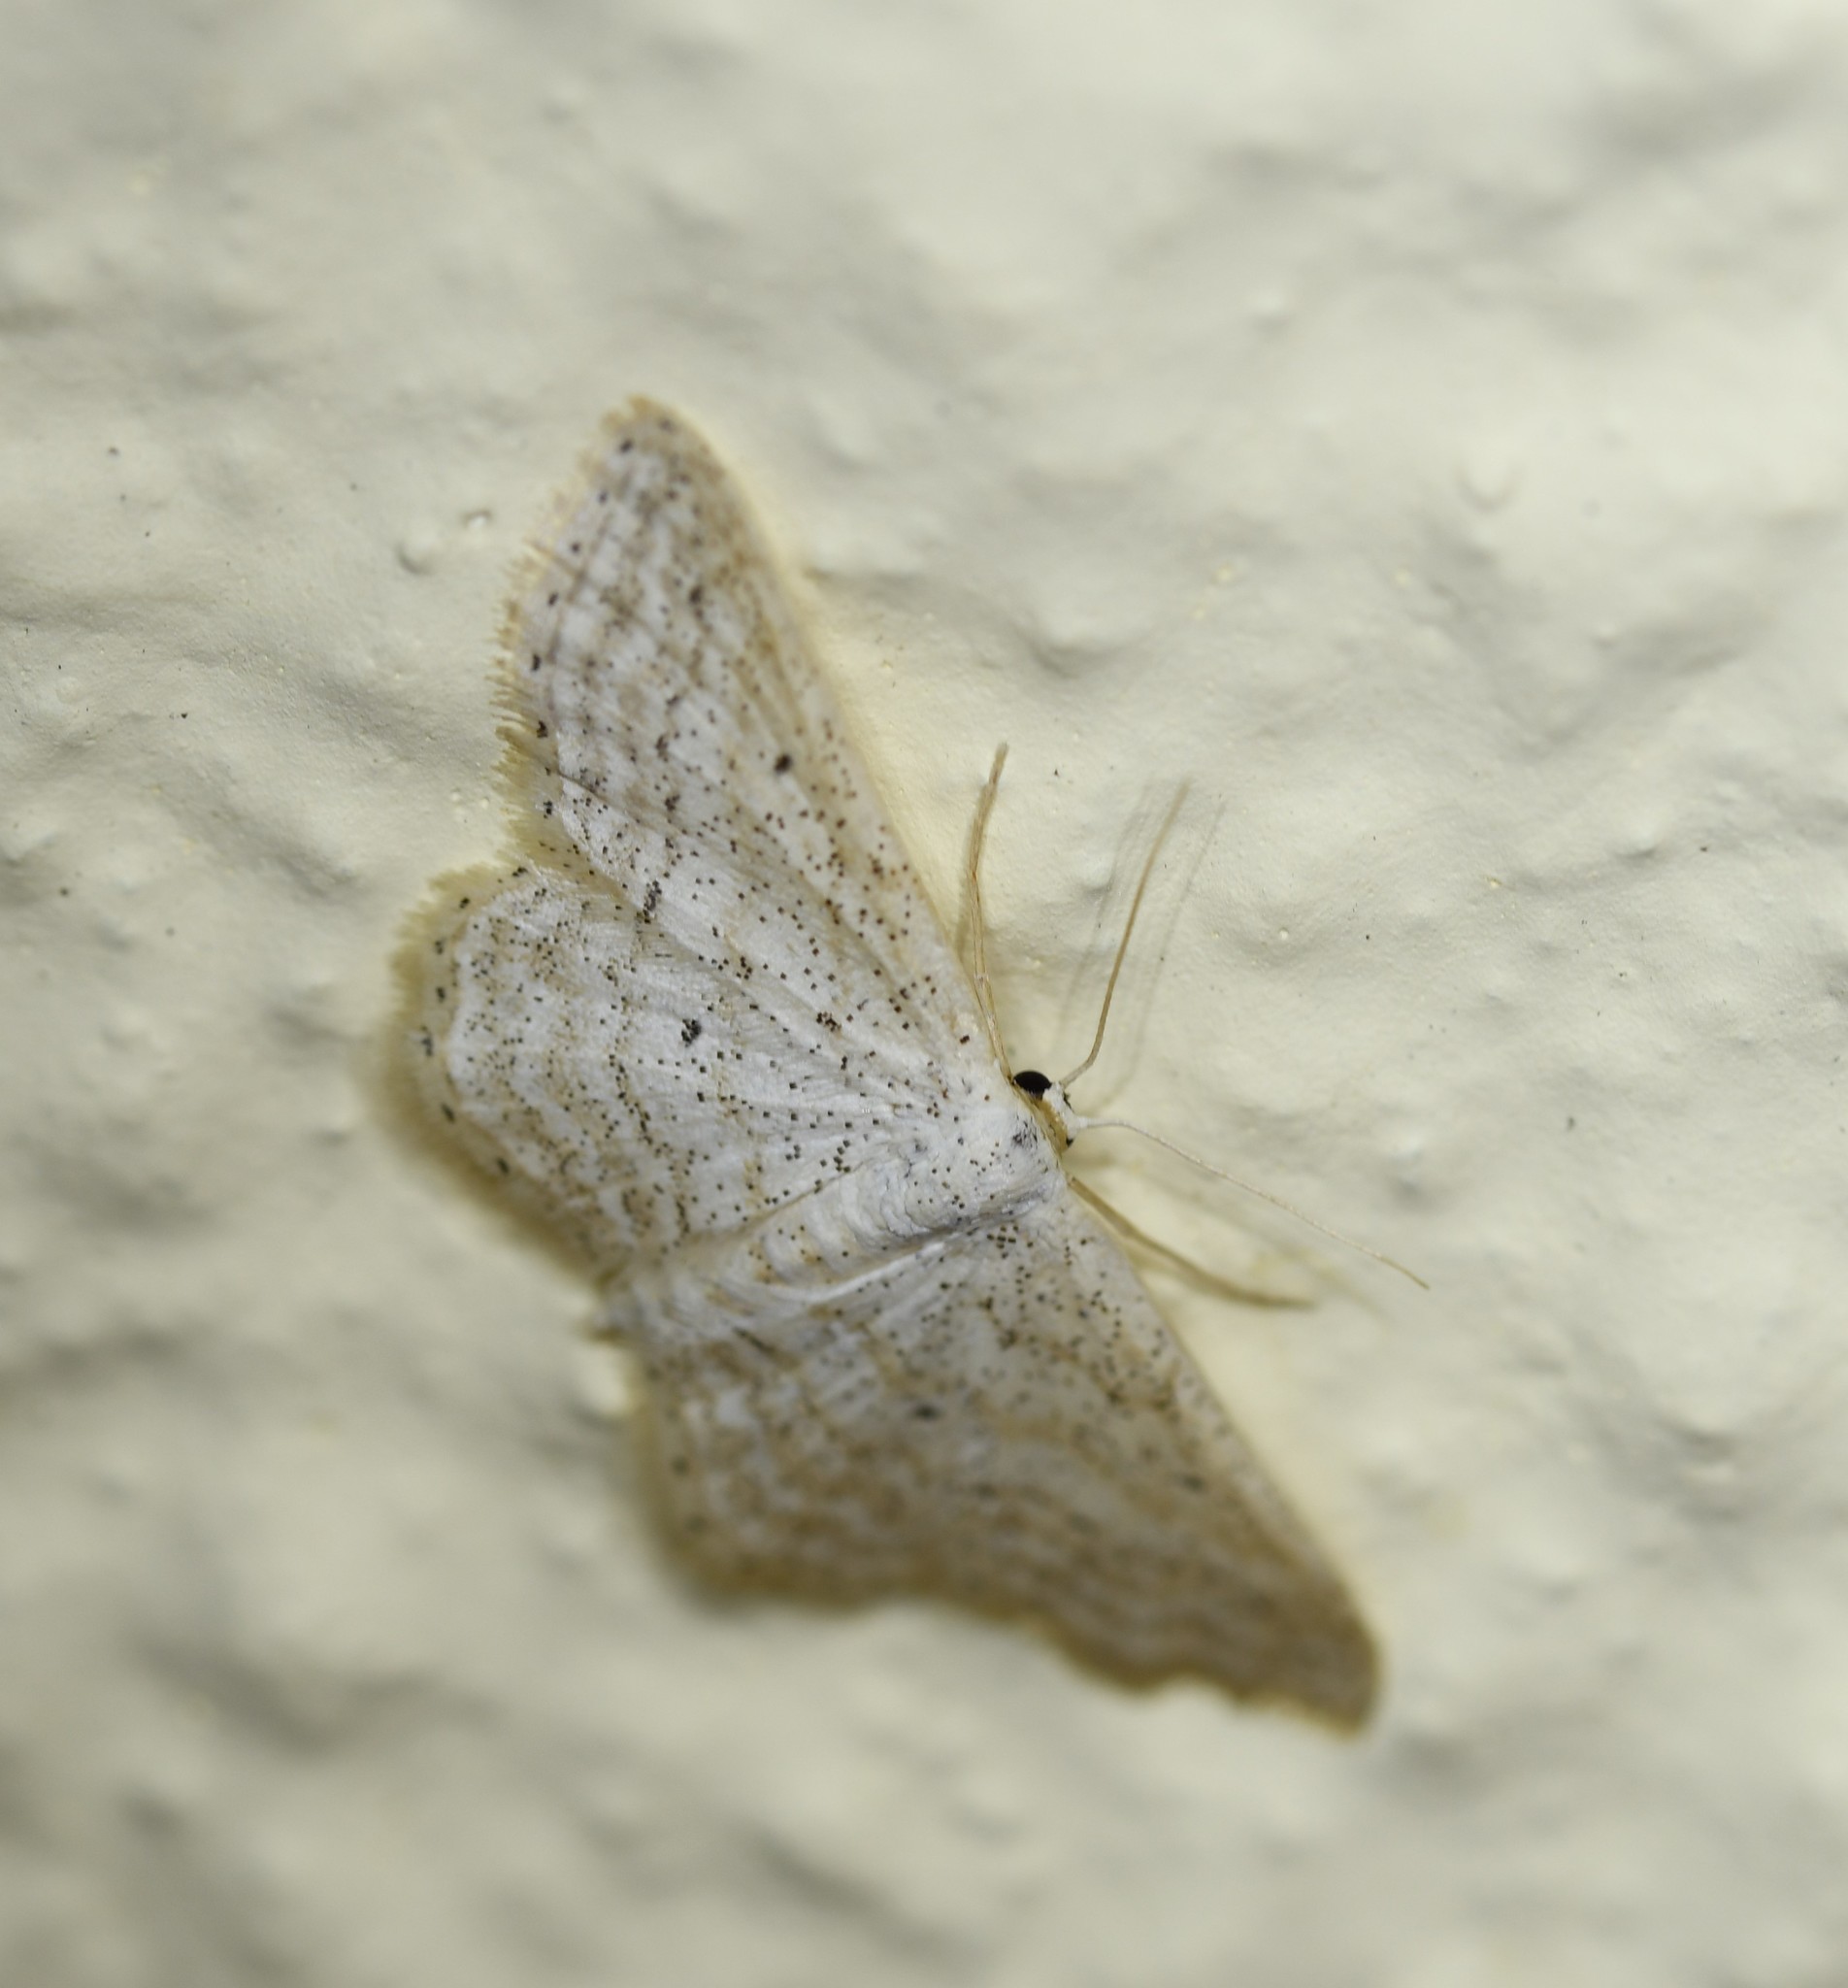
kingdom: Animalia
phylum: Arthropoda
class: Insecta
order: Lepidoptera
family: Geometridae
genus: Idaea
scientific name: Idaea elongaria
